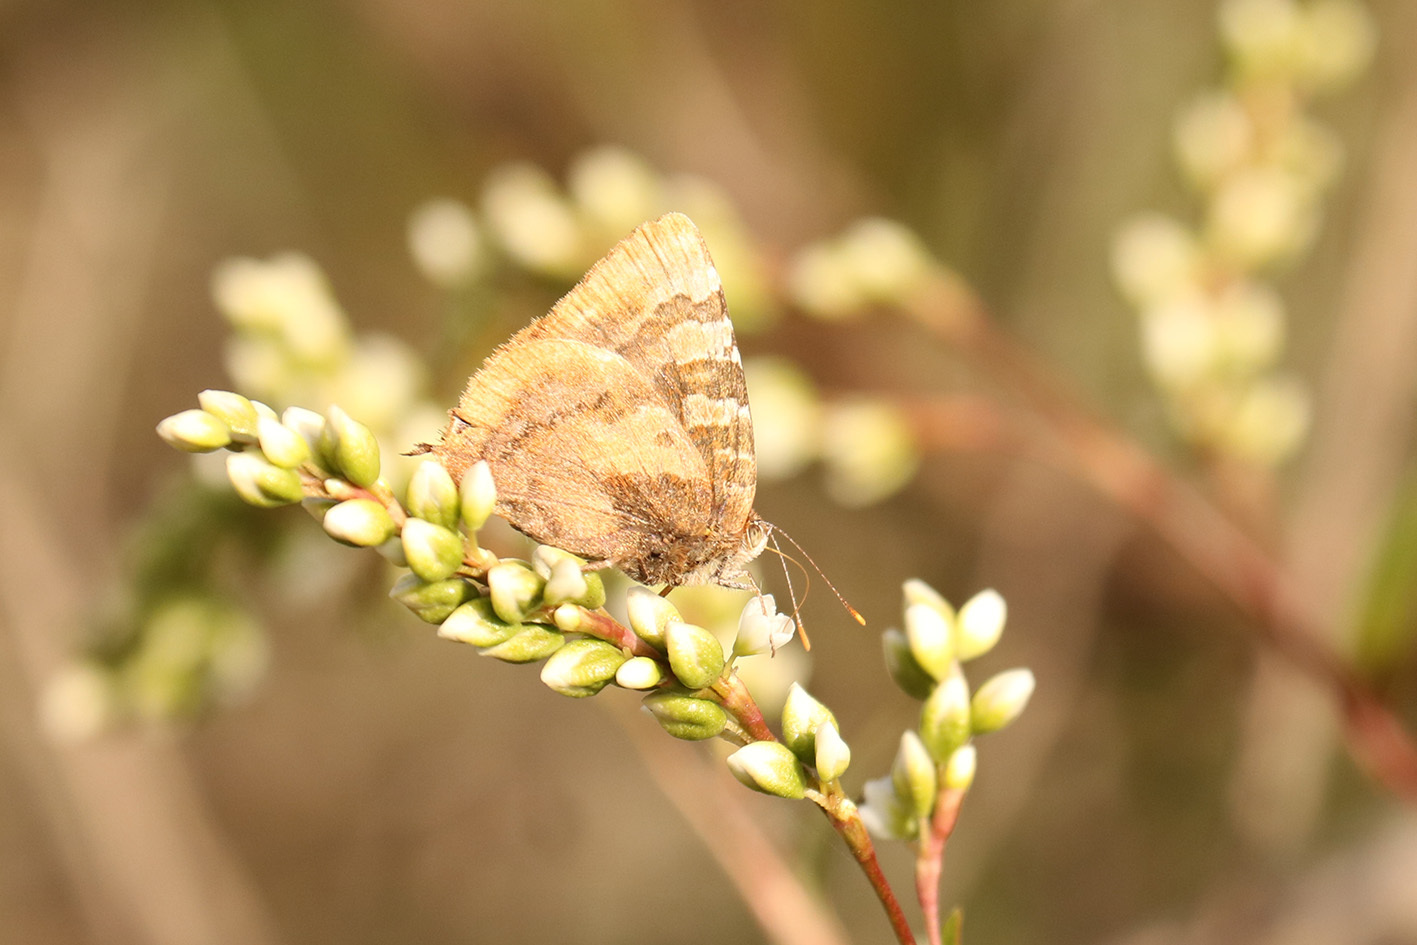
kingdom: Animalia
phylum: Arthropoda
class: Insecta
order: Lepidoptera
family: Lycaenidae
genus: Arawacus
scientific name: Arawacus ellida
